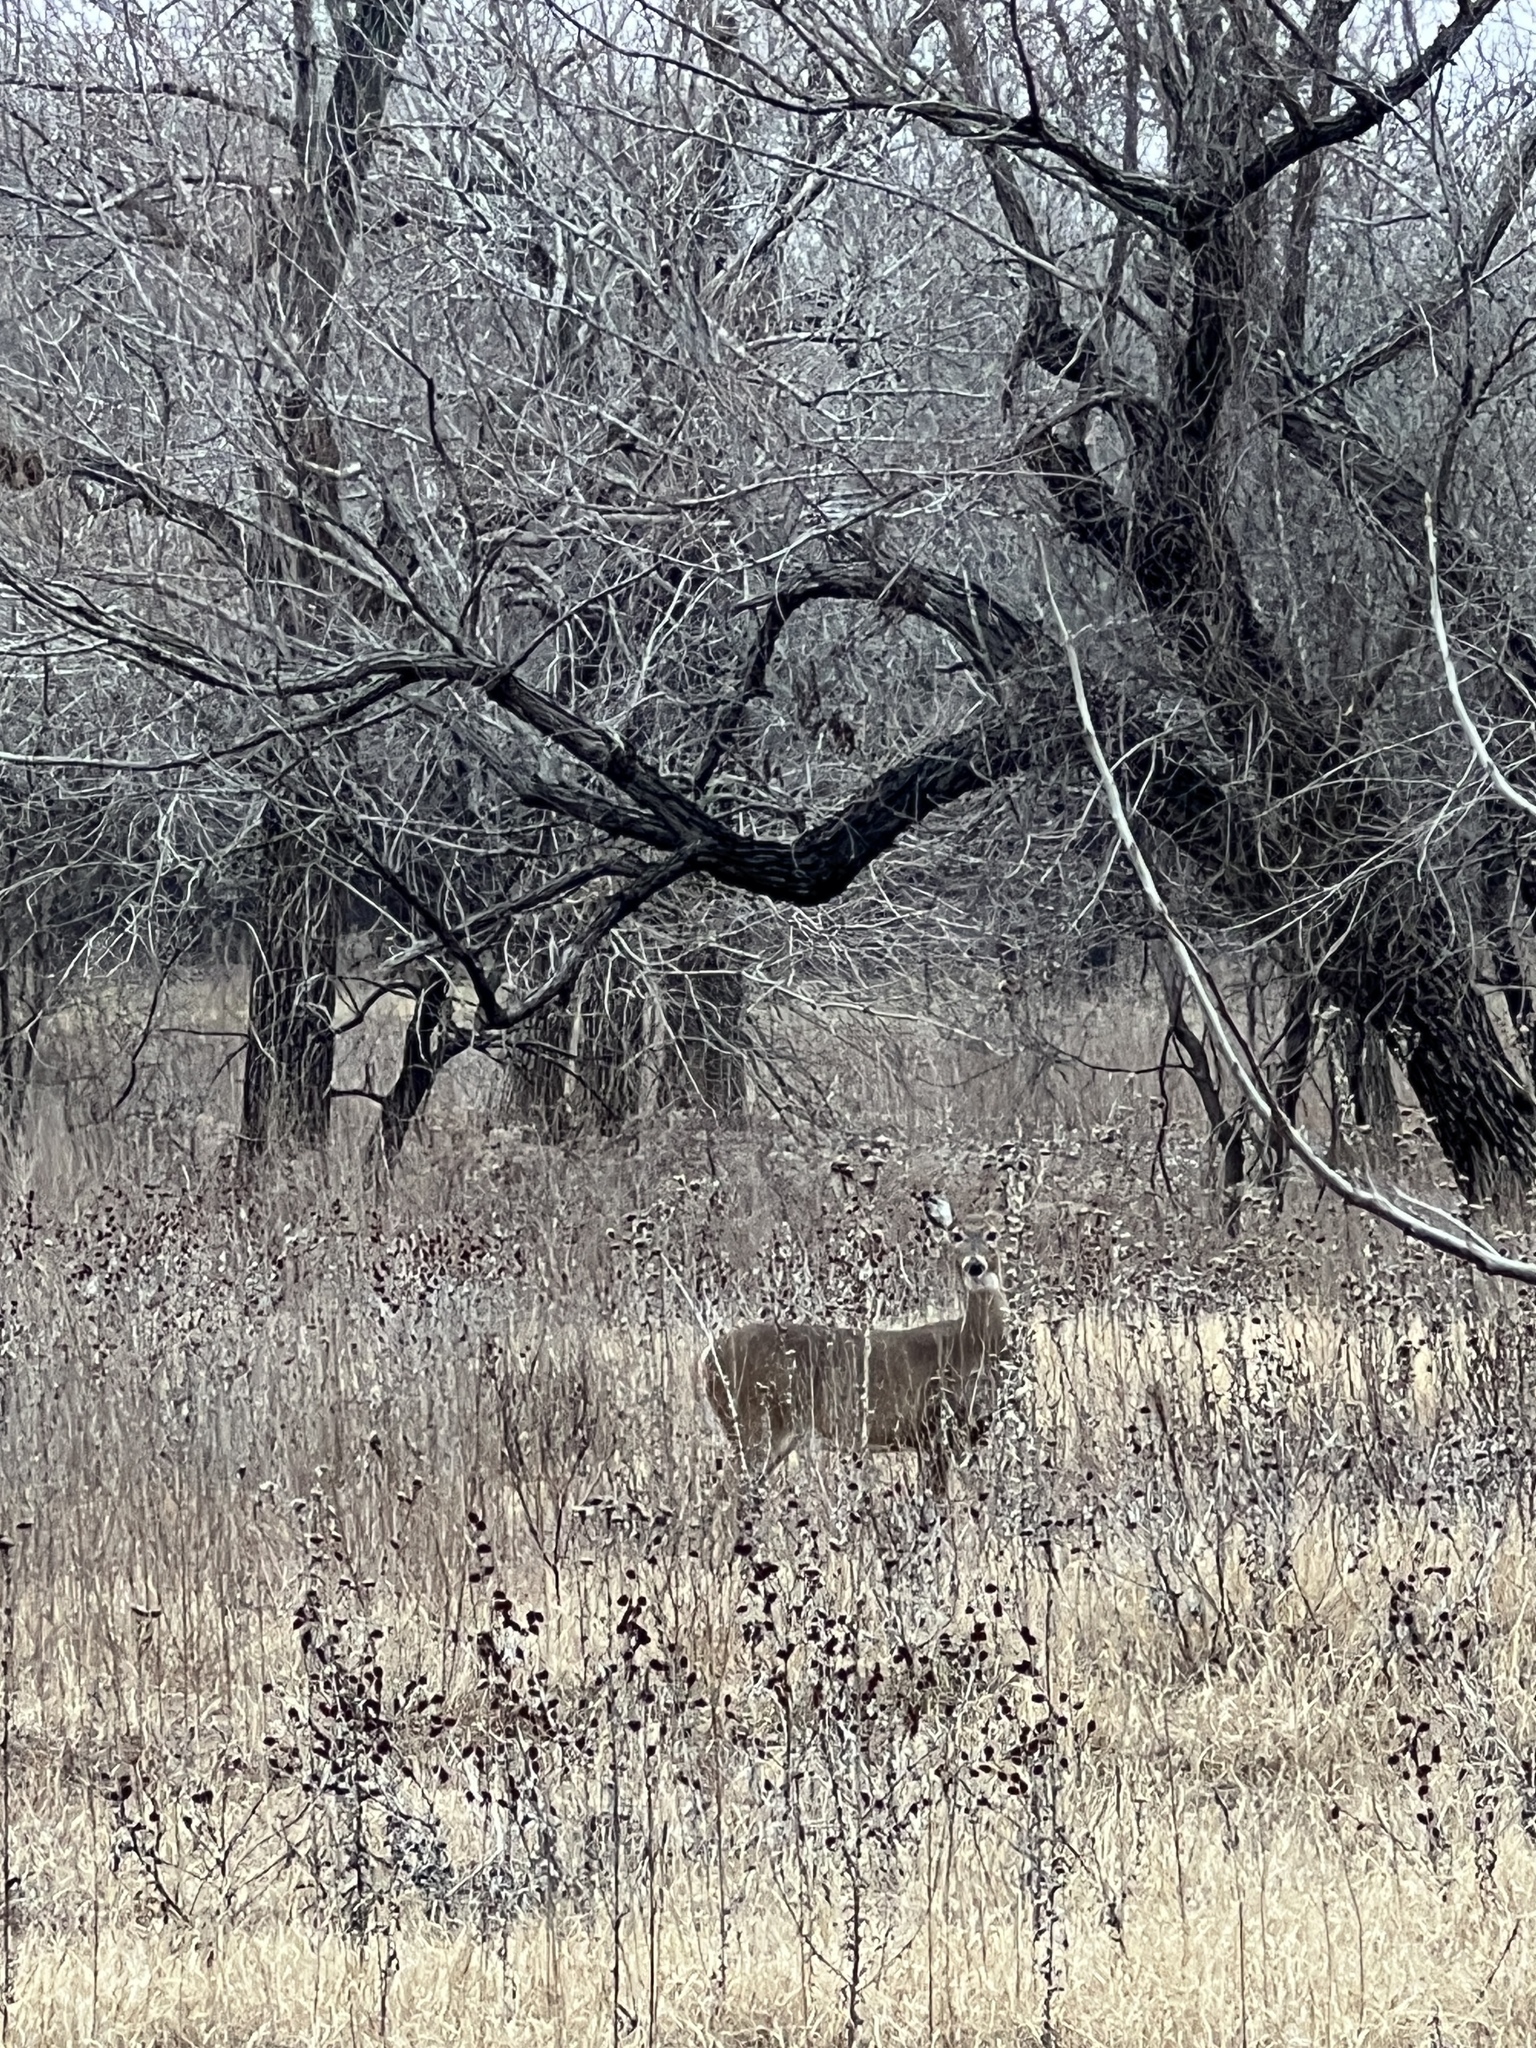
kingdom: Animalia
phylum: Chordata
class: Mammalia
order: Artiodactyla
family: Cervidae
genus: Odocoileus
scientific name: Odocoileus virginianus
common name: White-tailed deer
